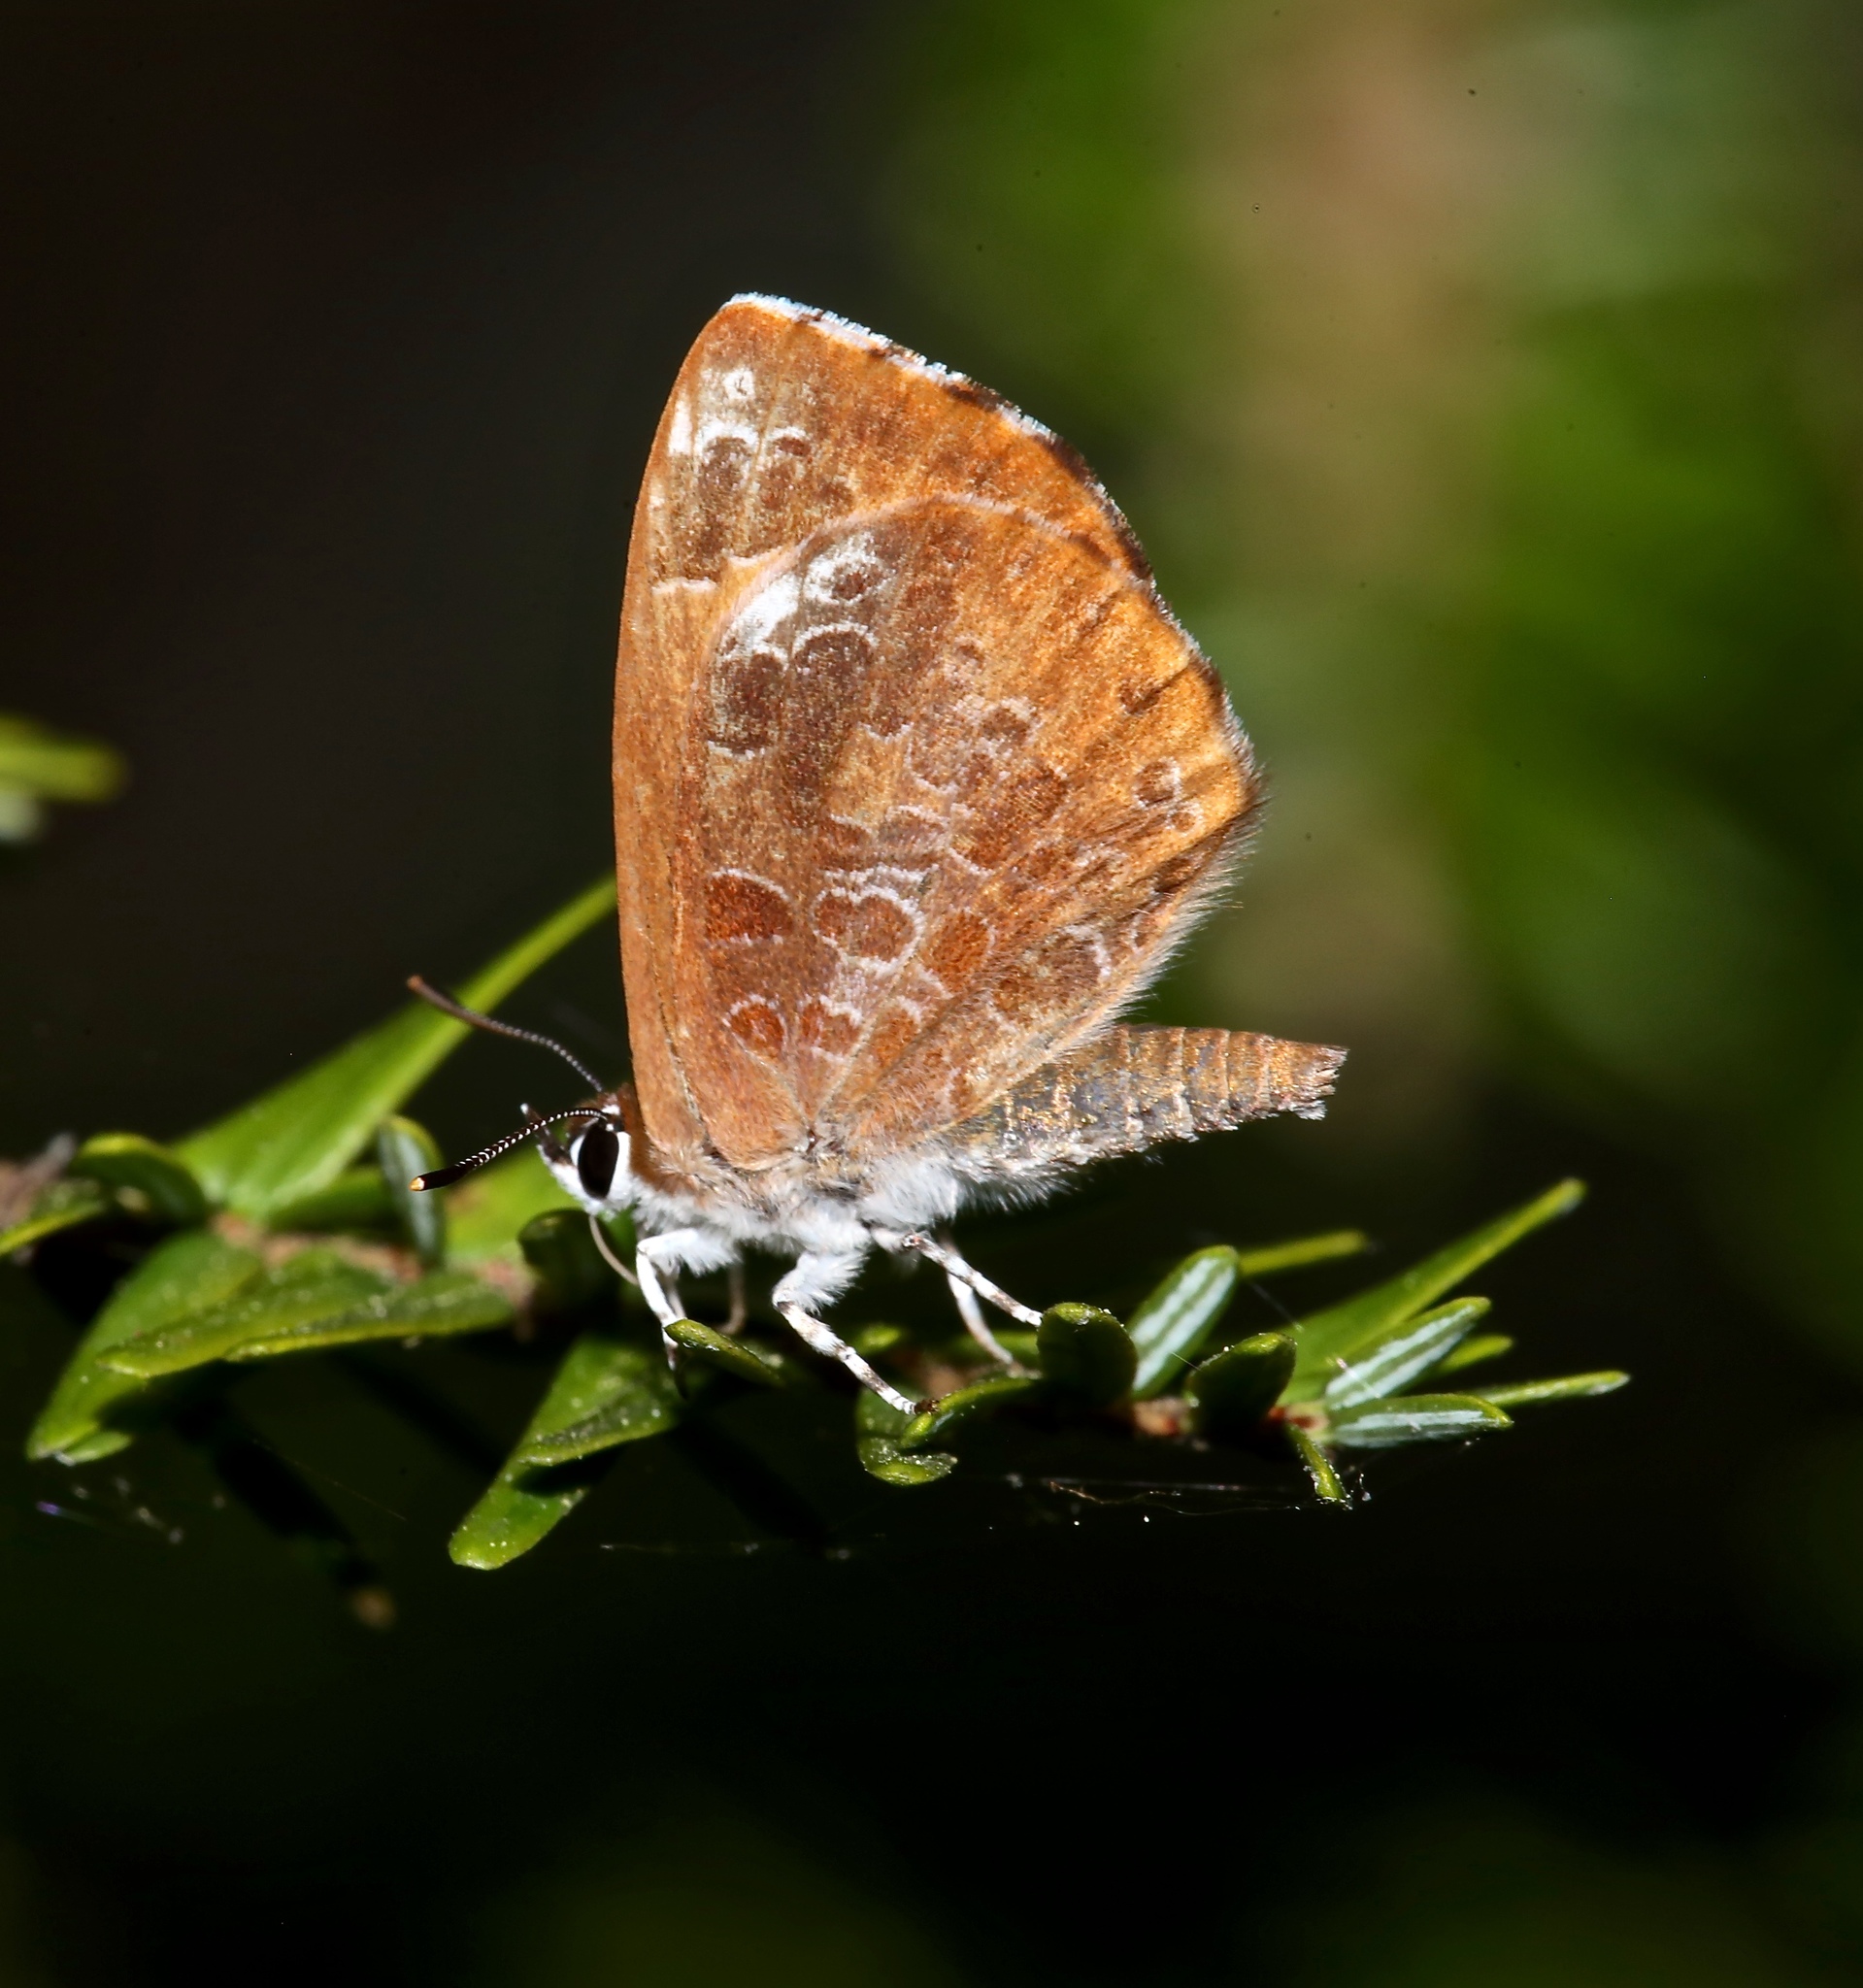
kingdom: Animalia
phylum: Arthropoda
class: Insecta
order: Lepidoptera
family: Lycaenidae
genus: Feniseca
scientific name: Feniseca tarquinius
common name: Harvester
